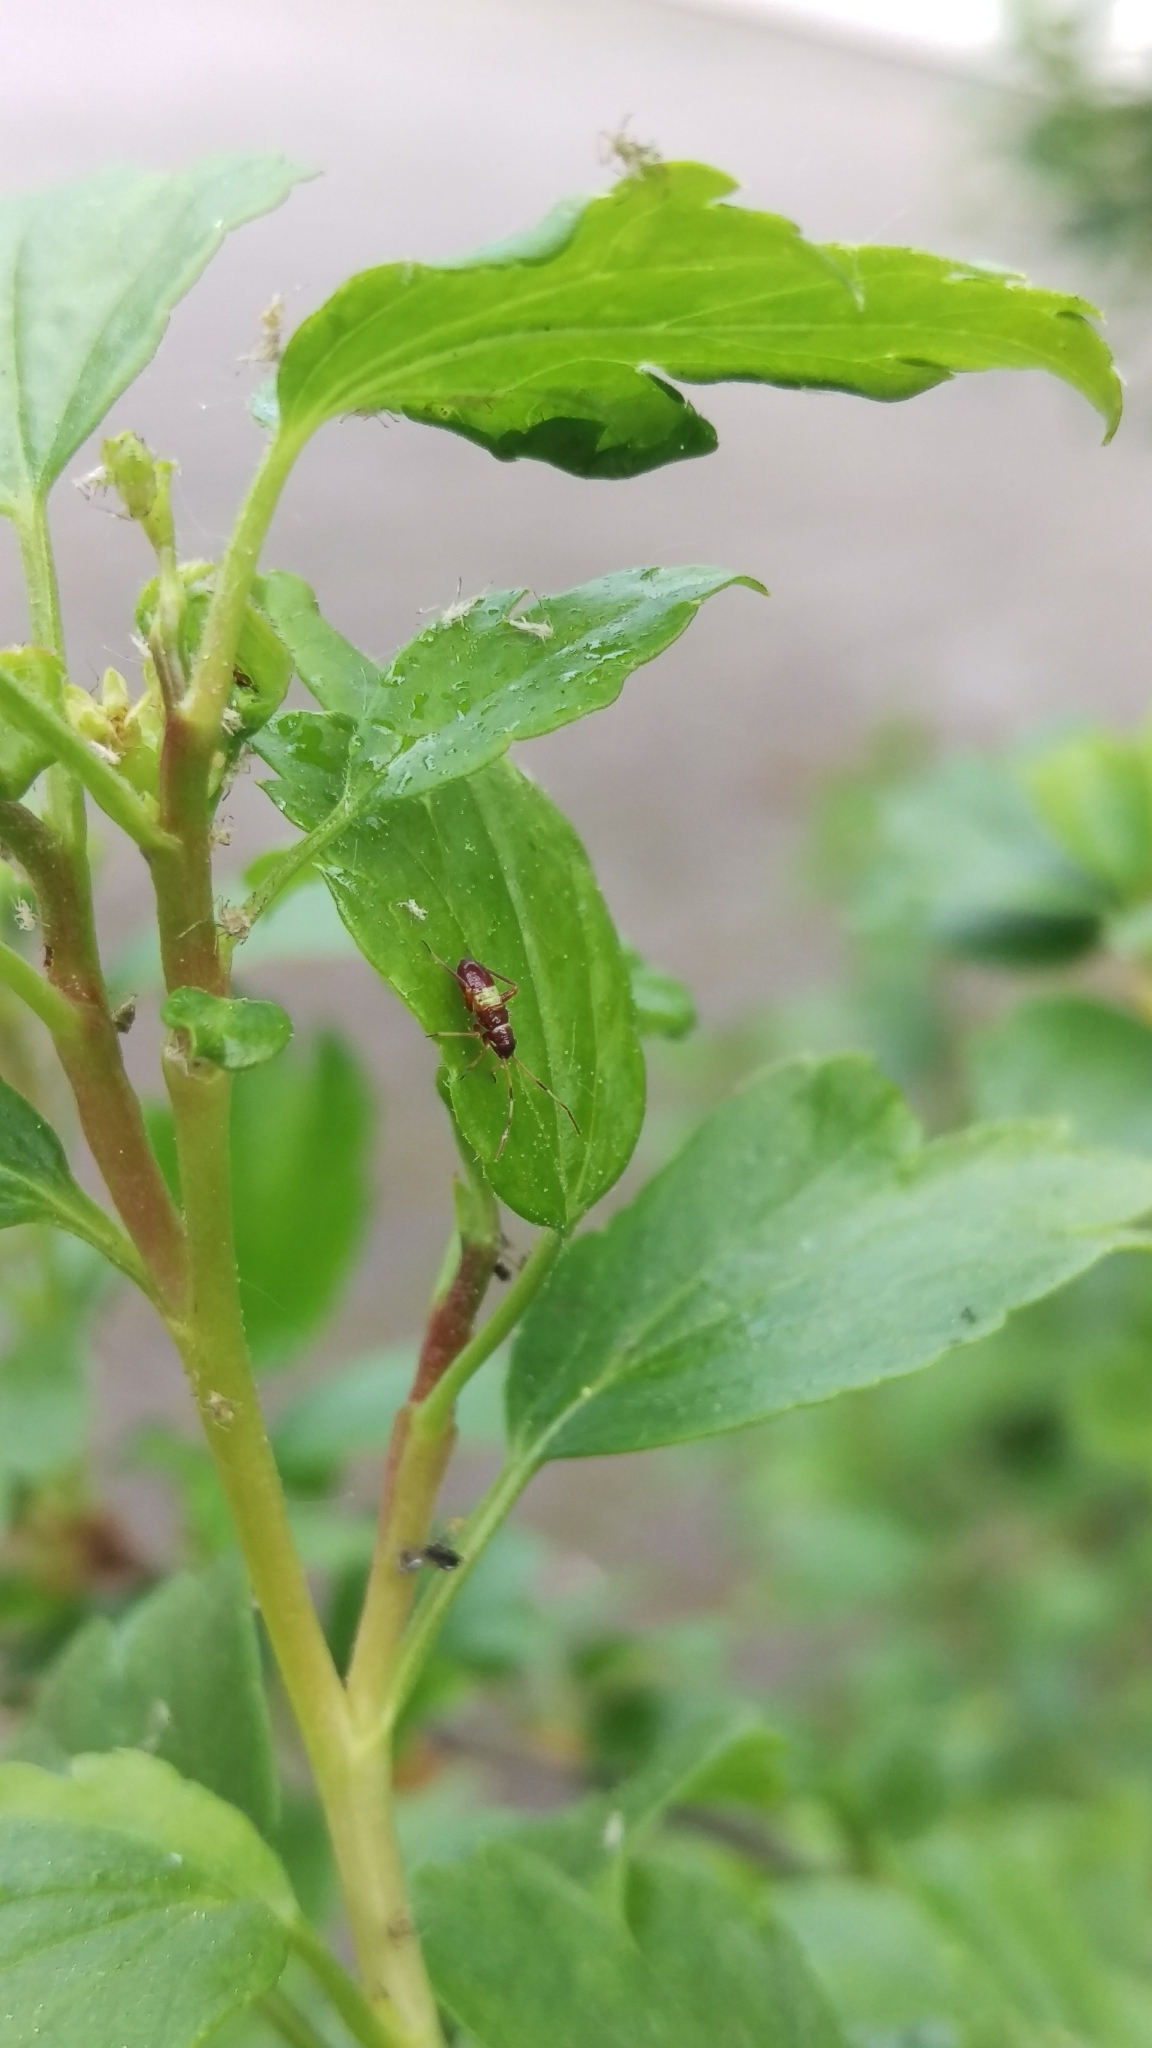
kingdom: Animalia
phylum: Arthropoda
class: Insecta
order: Hemiptera
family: Miridae
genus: Closterotomus
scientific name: Closterotomus biclavatus
